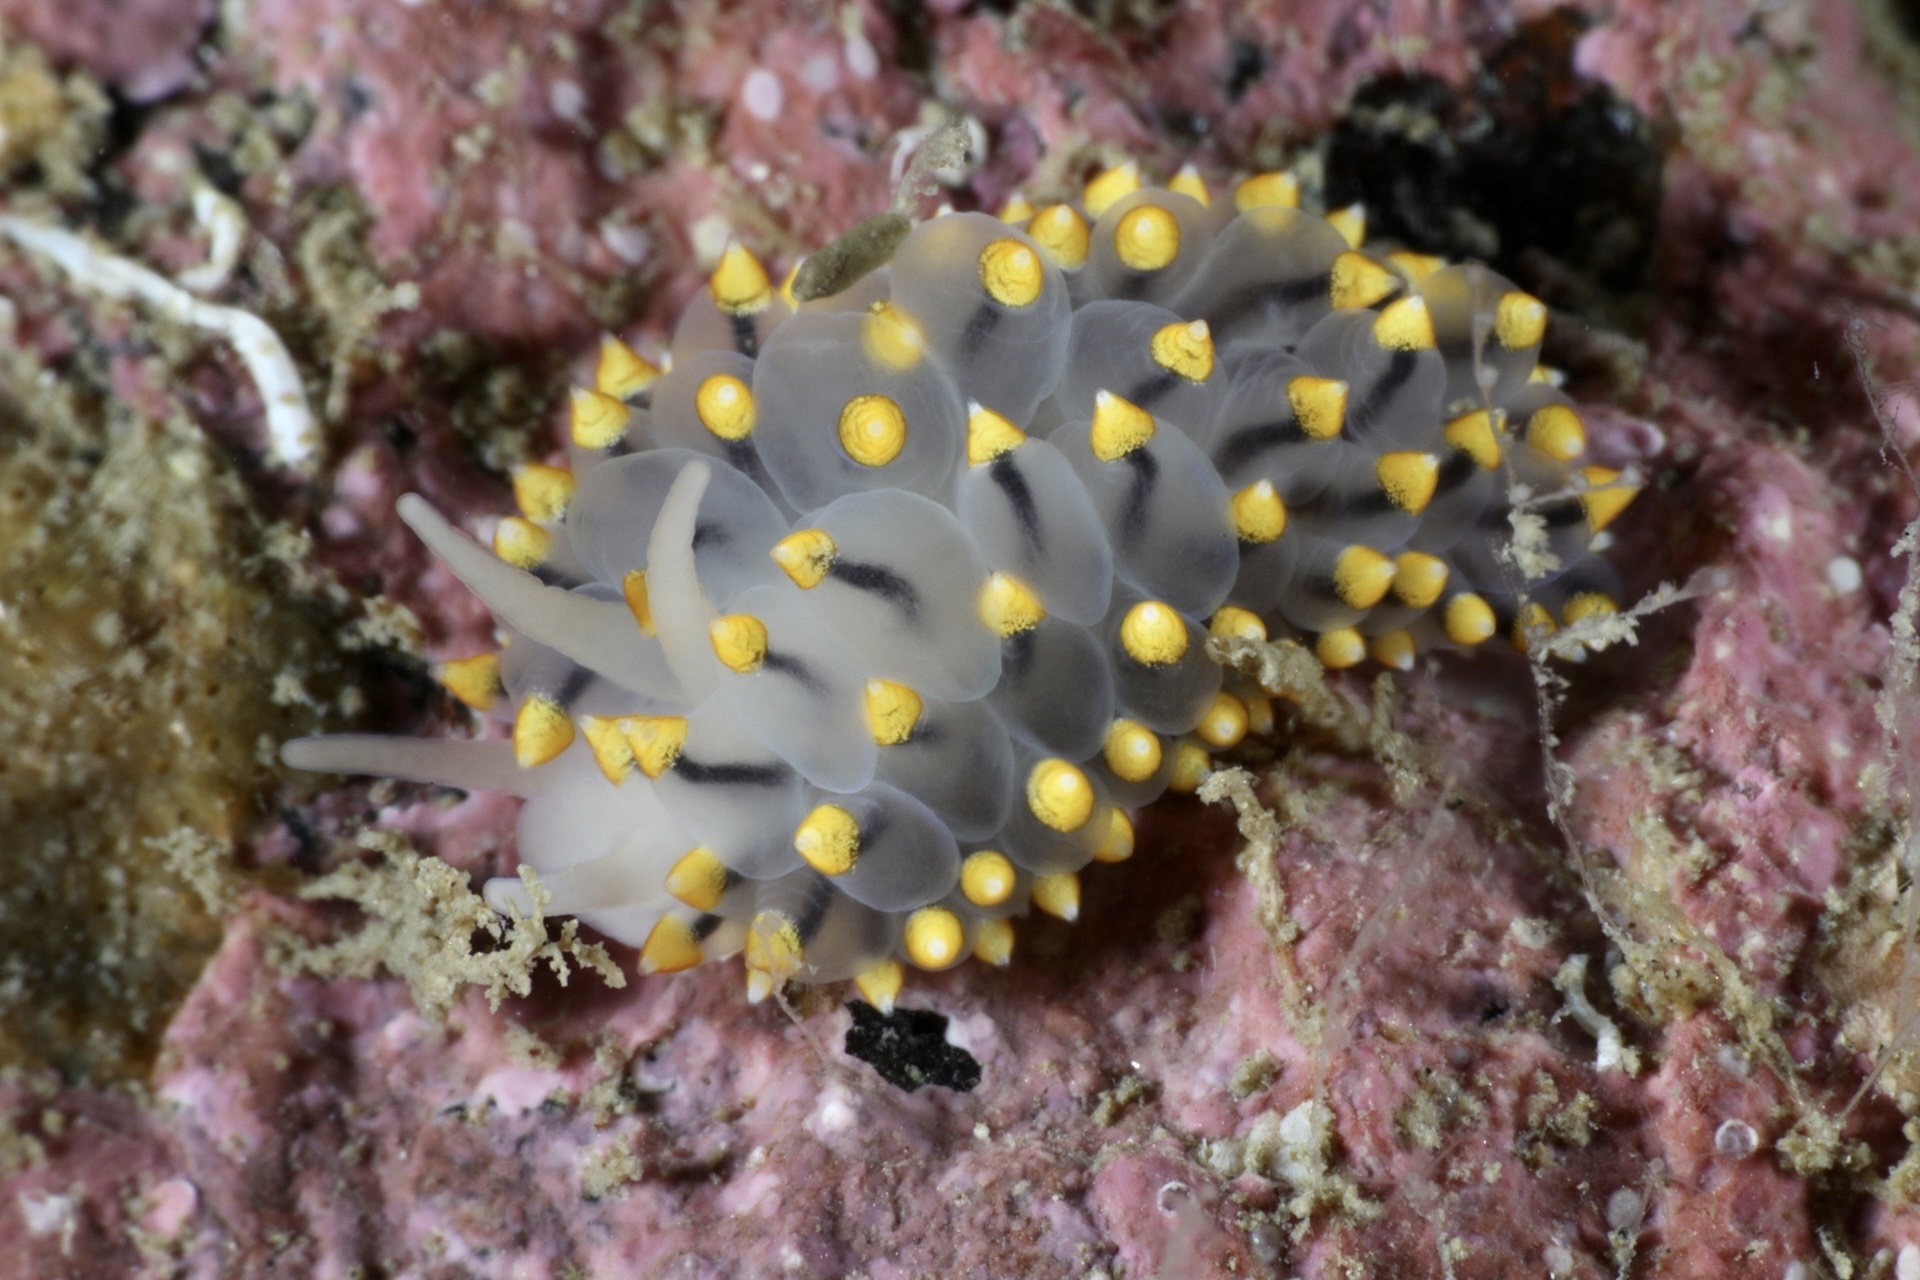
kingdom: Animalia
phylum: Mollusca
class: Gastropoda
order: Nudibranchia
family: Eubranchidae
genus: Eubranchus
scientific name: Eubranchus tricolor
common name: Painted balloon aeolis
